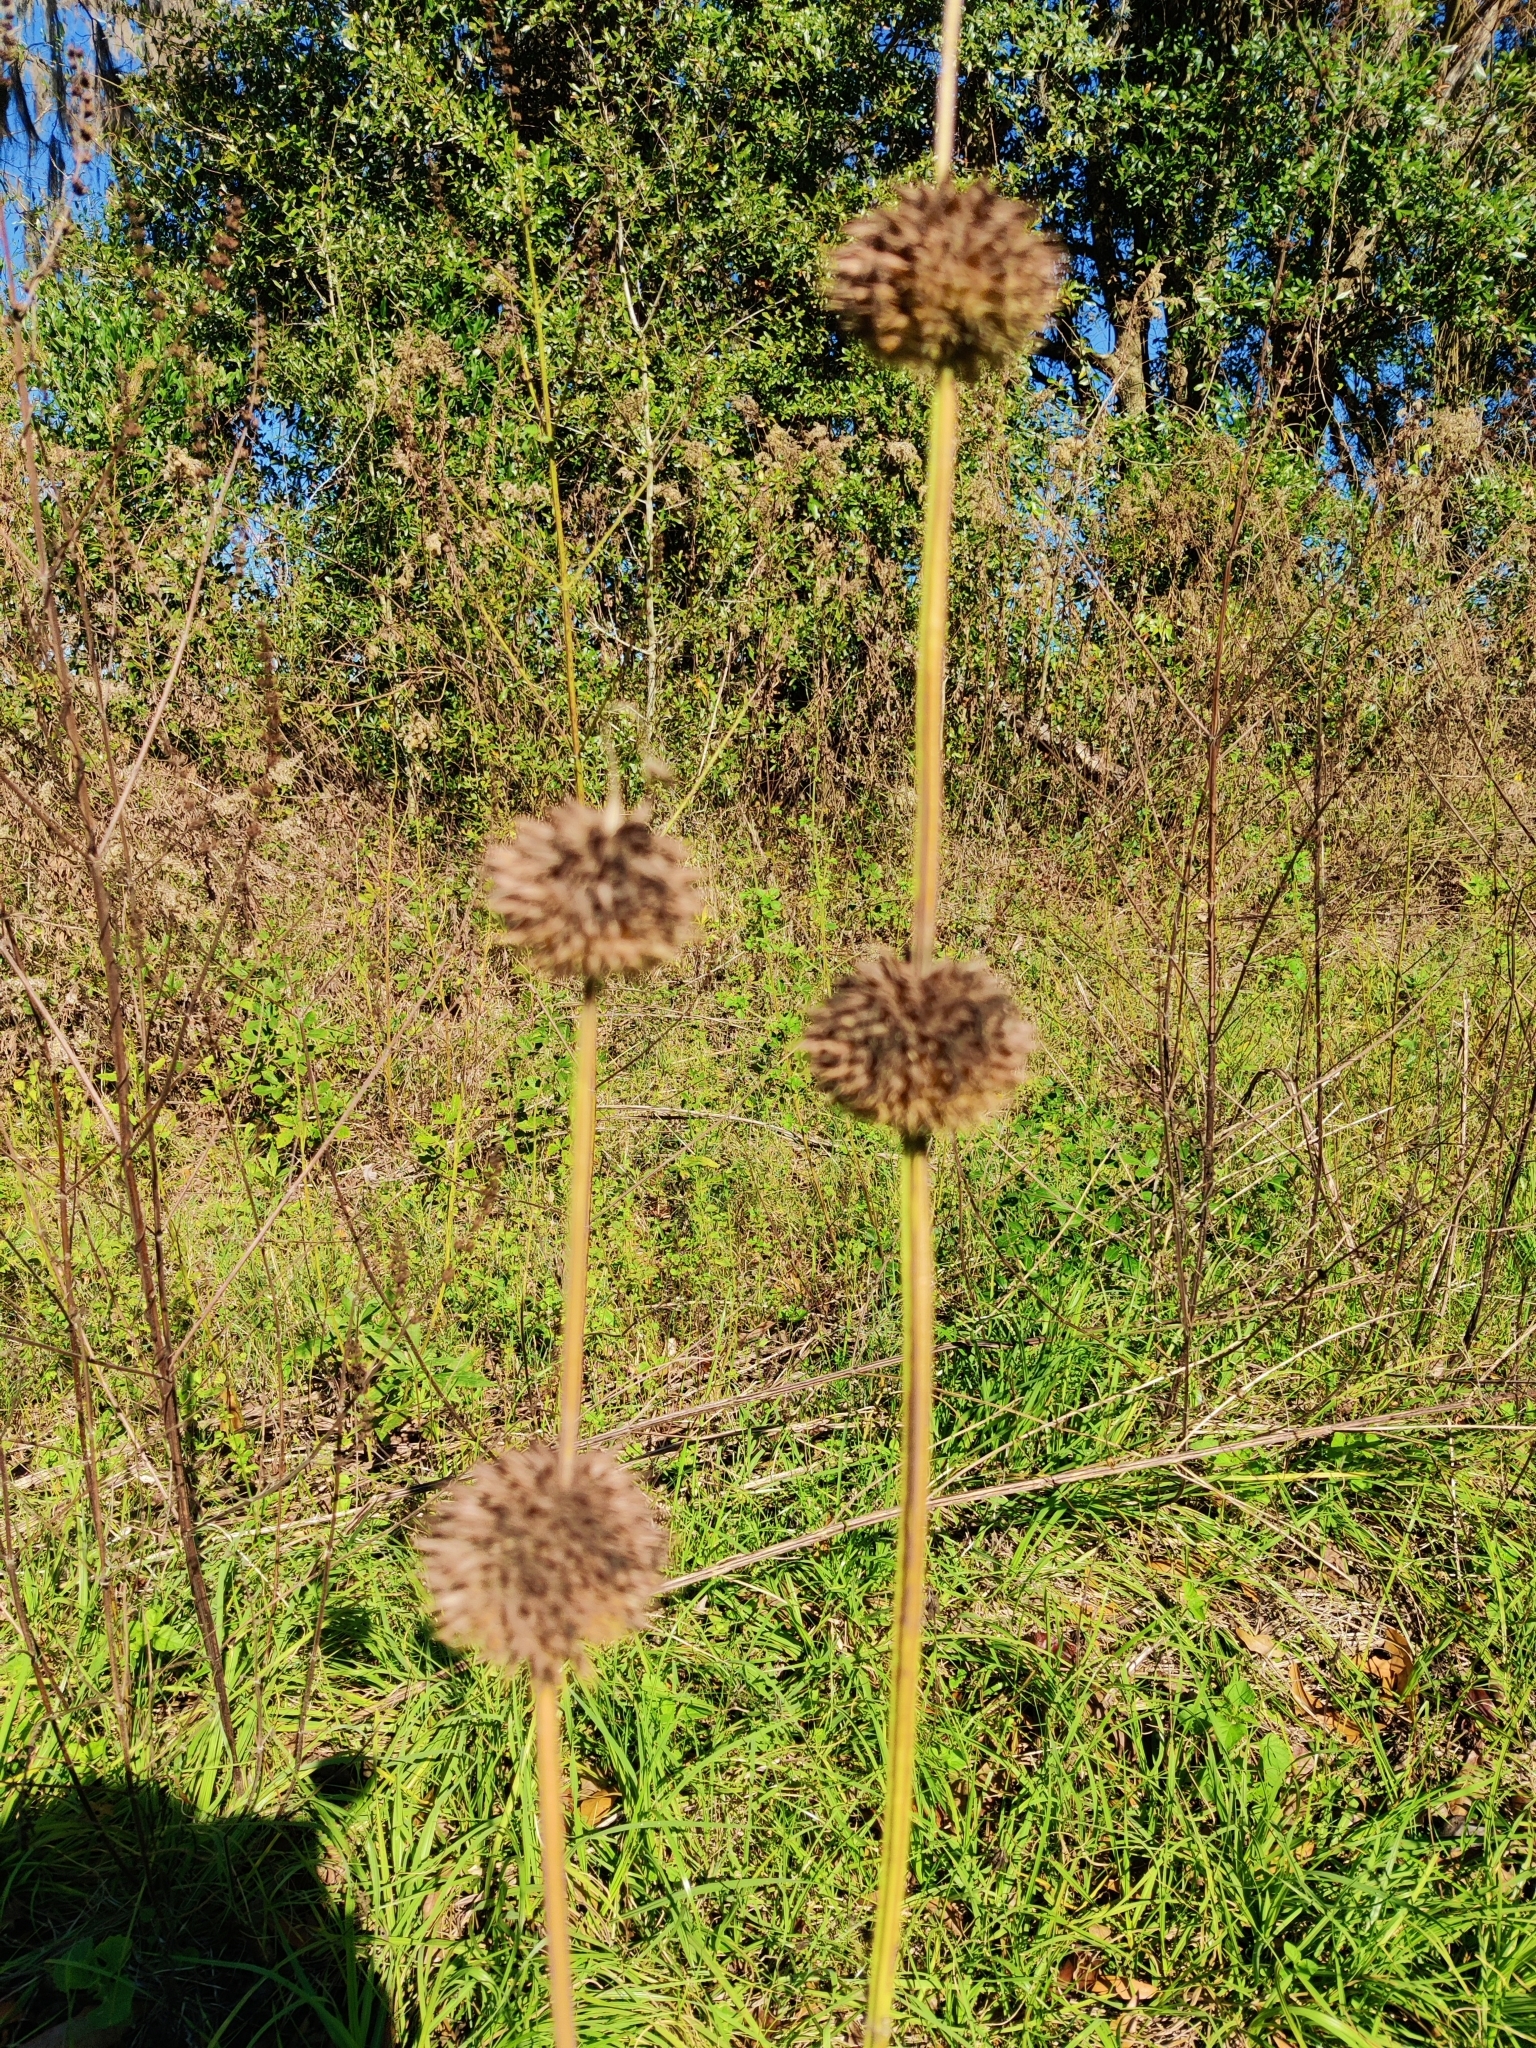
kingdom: Plantae
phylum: Tracheophyta
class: Magnoliopsida
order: Lamiales
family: Lamiaceae
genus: Leonotis
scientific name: Leonotis nepetifolia
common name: Christmas candlestick
